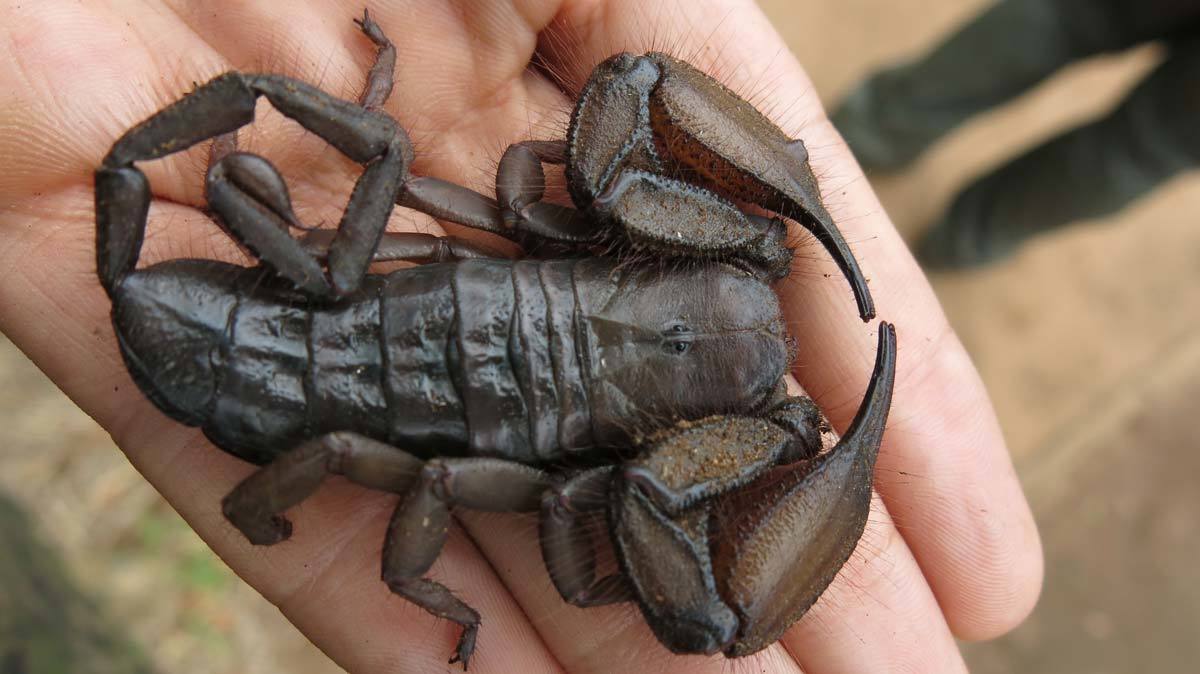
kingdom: Animalia
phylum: Arthropoda
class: Arachnida
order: Scorpiones
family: Hormuridae
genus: Hadogenes
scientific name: Hadogenes troglodytes
